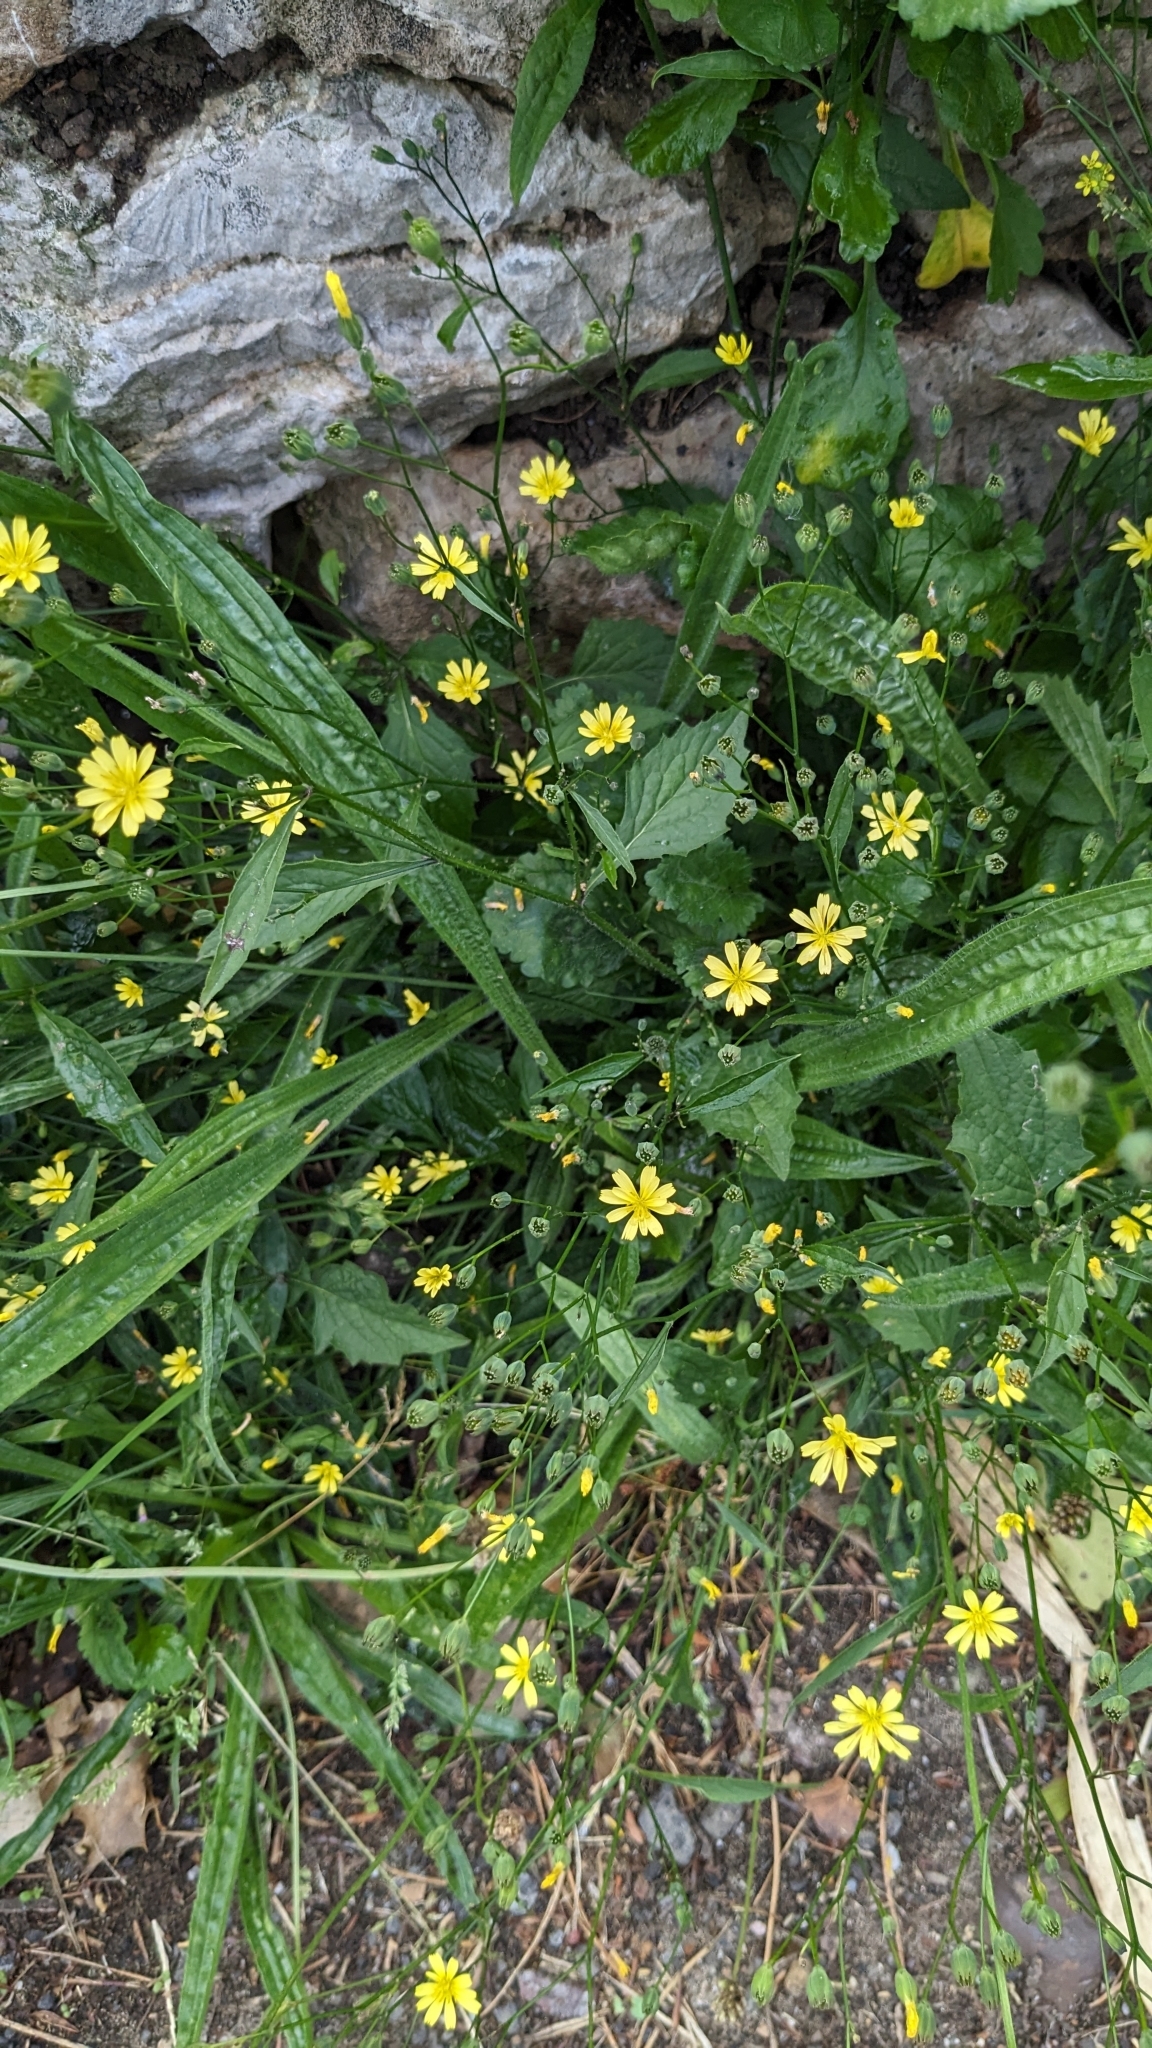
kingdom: Plantae
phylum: Tracheophyta
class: Magnoliopsida
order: Asterales
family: Asteraceae
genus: Lapsana
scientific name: Lapsana communis
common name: Nipplewort
